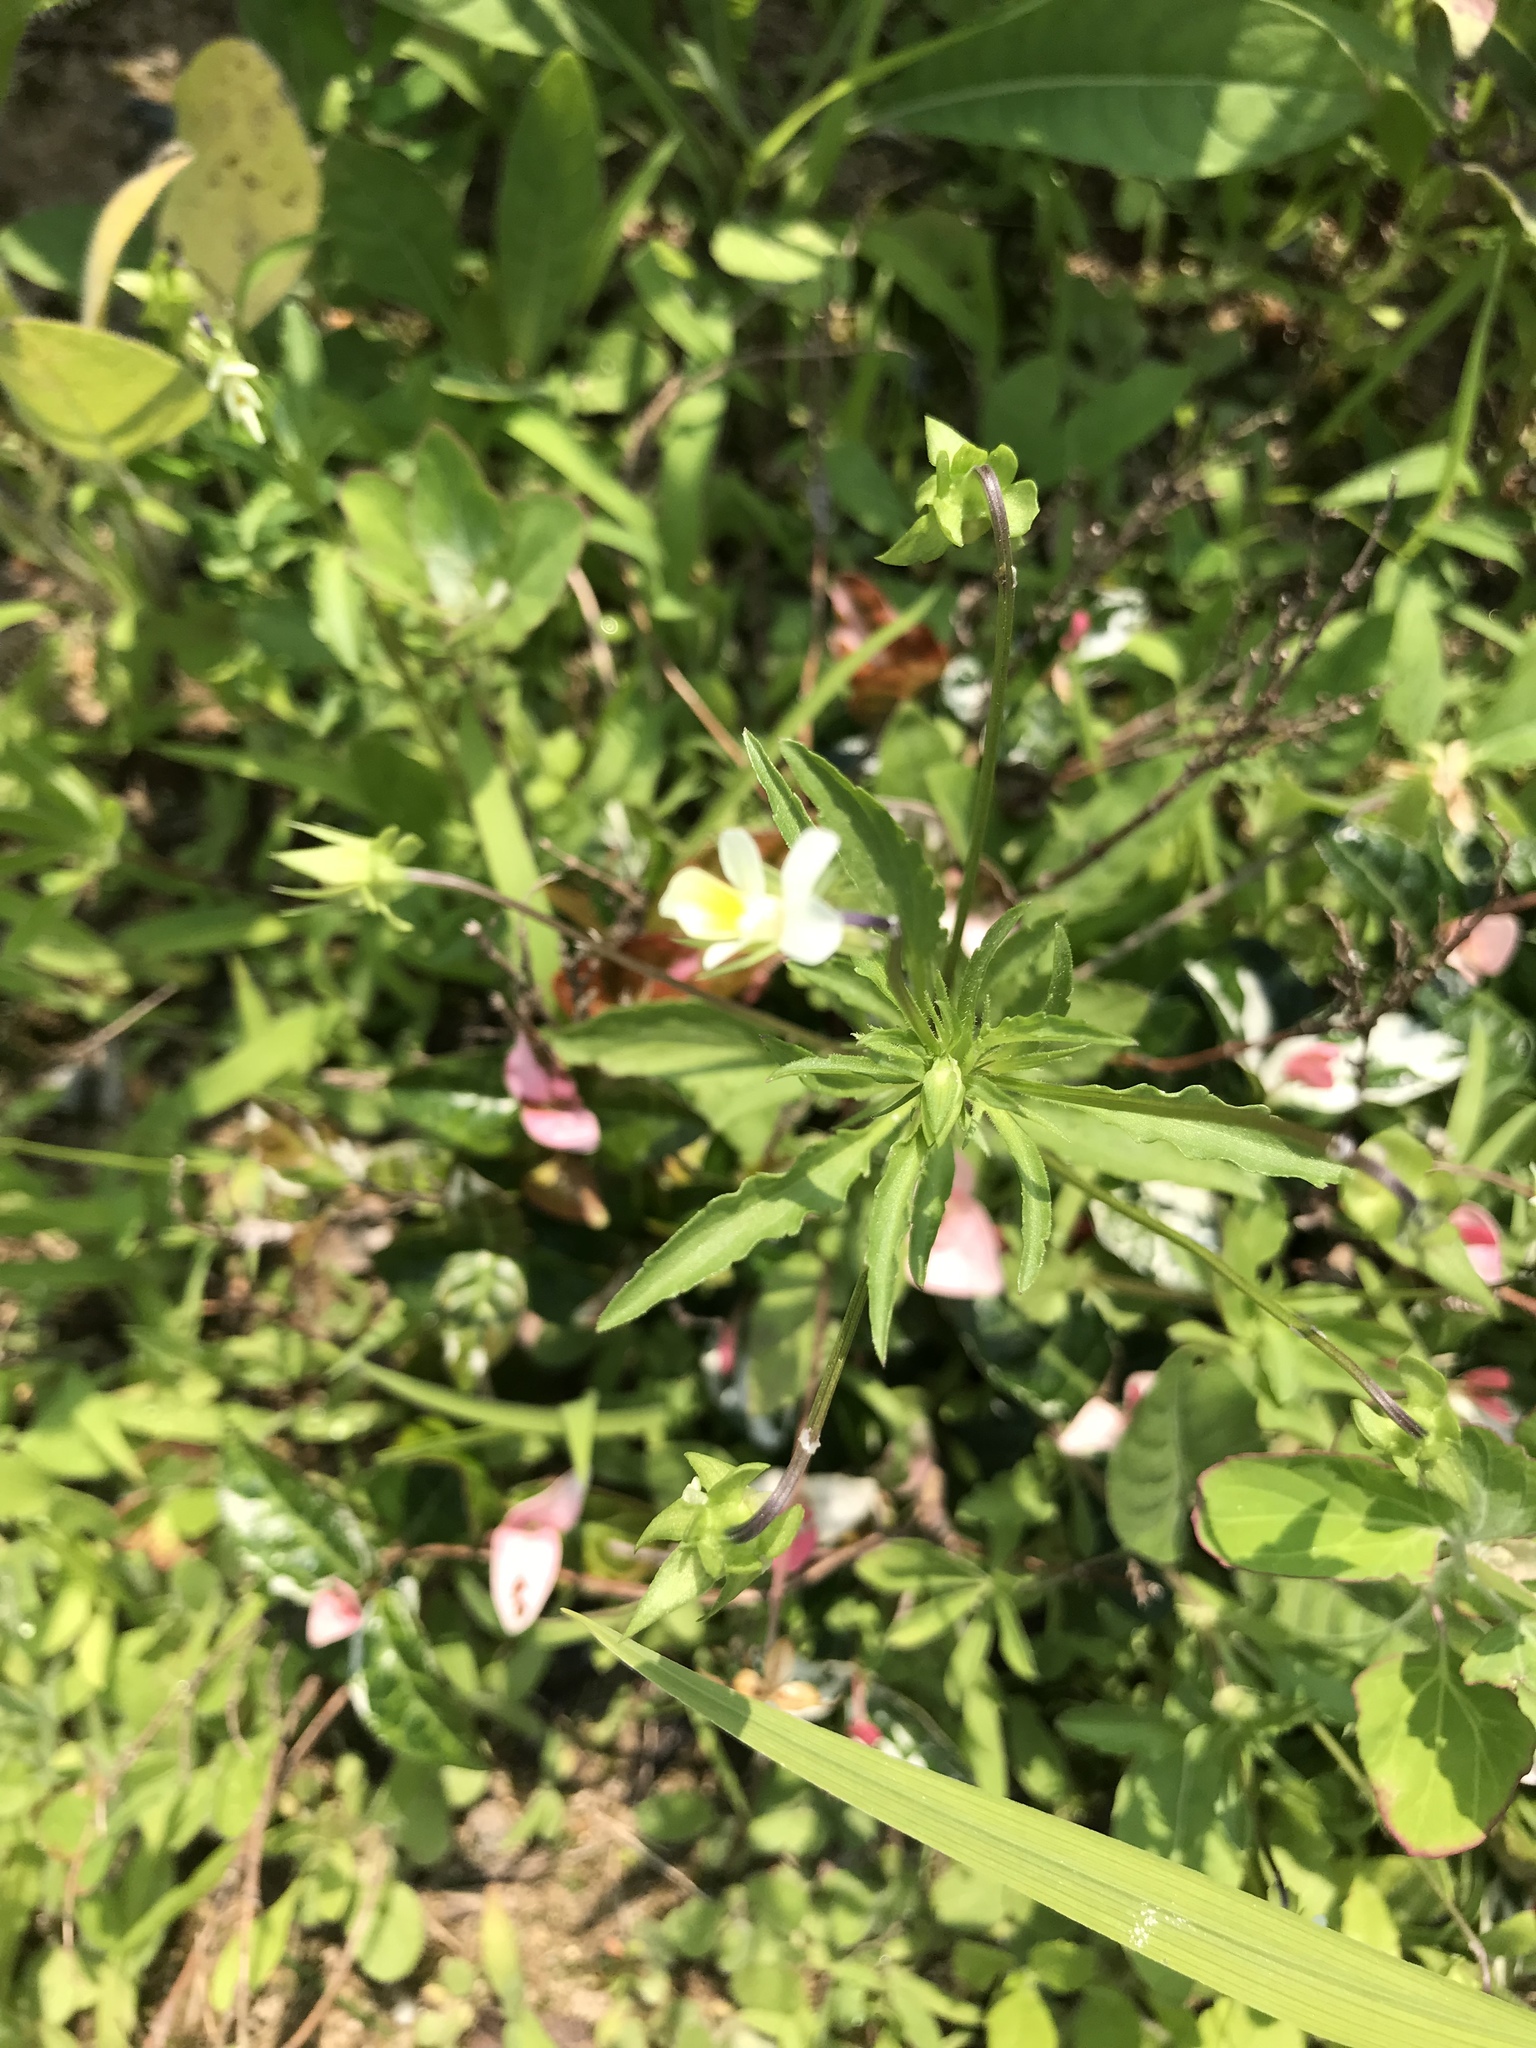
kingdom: Plantae
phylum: Tracheophyta
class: Magnoliopsida
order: Malpighiales
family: Violaceae
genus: Viola
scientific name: Viola rafinesquei
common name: American field pansy
